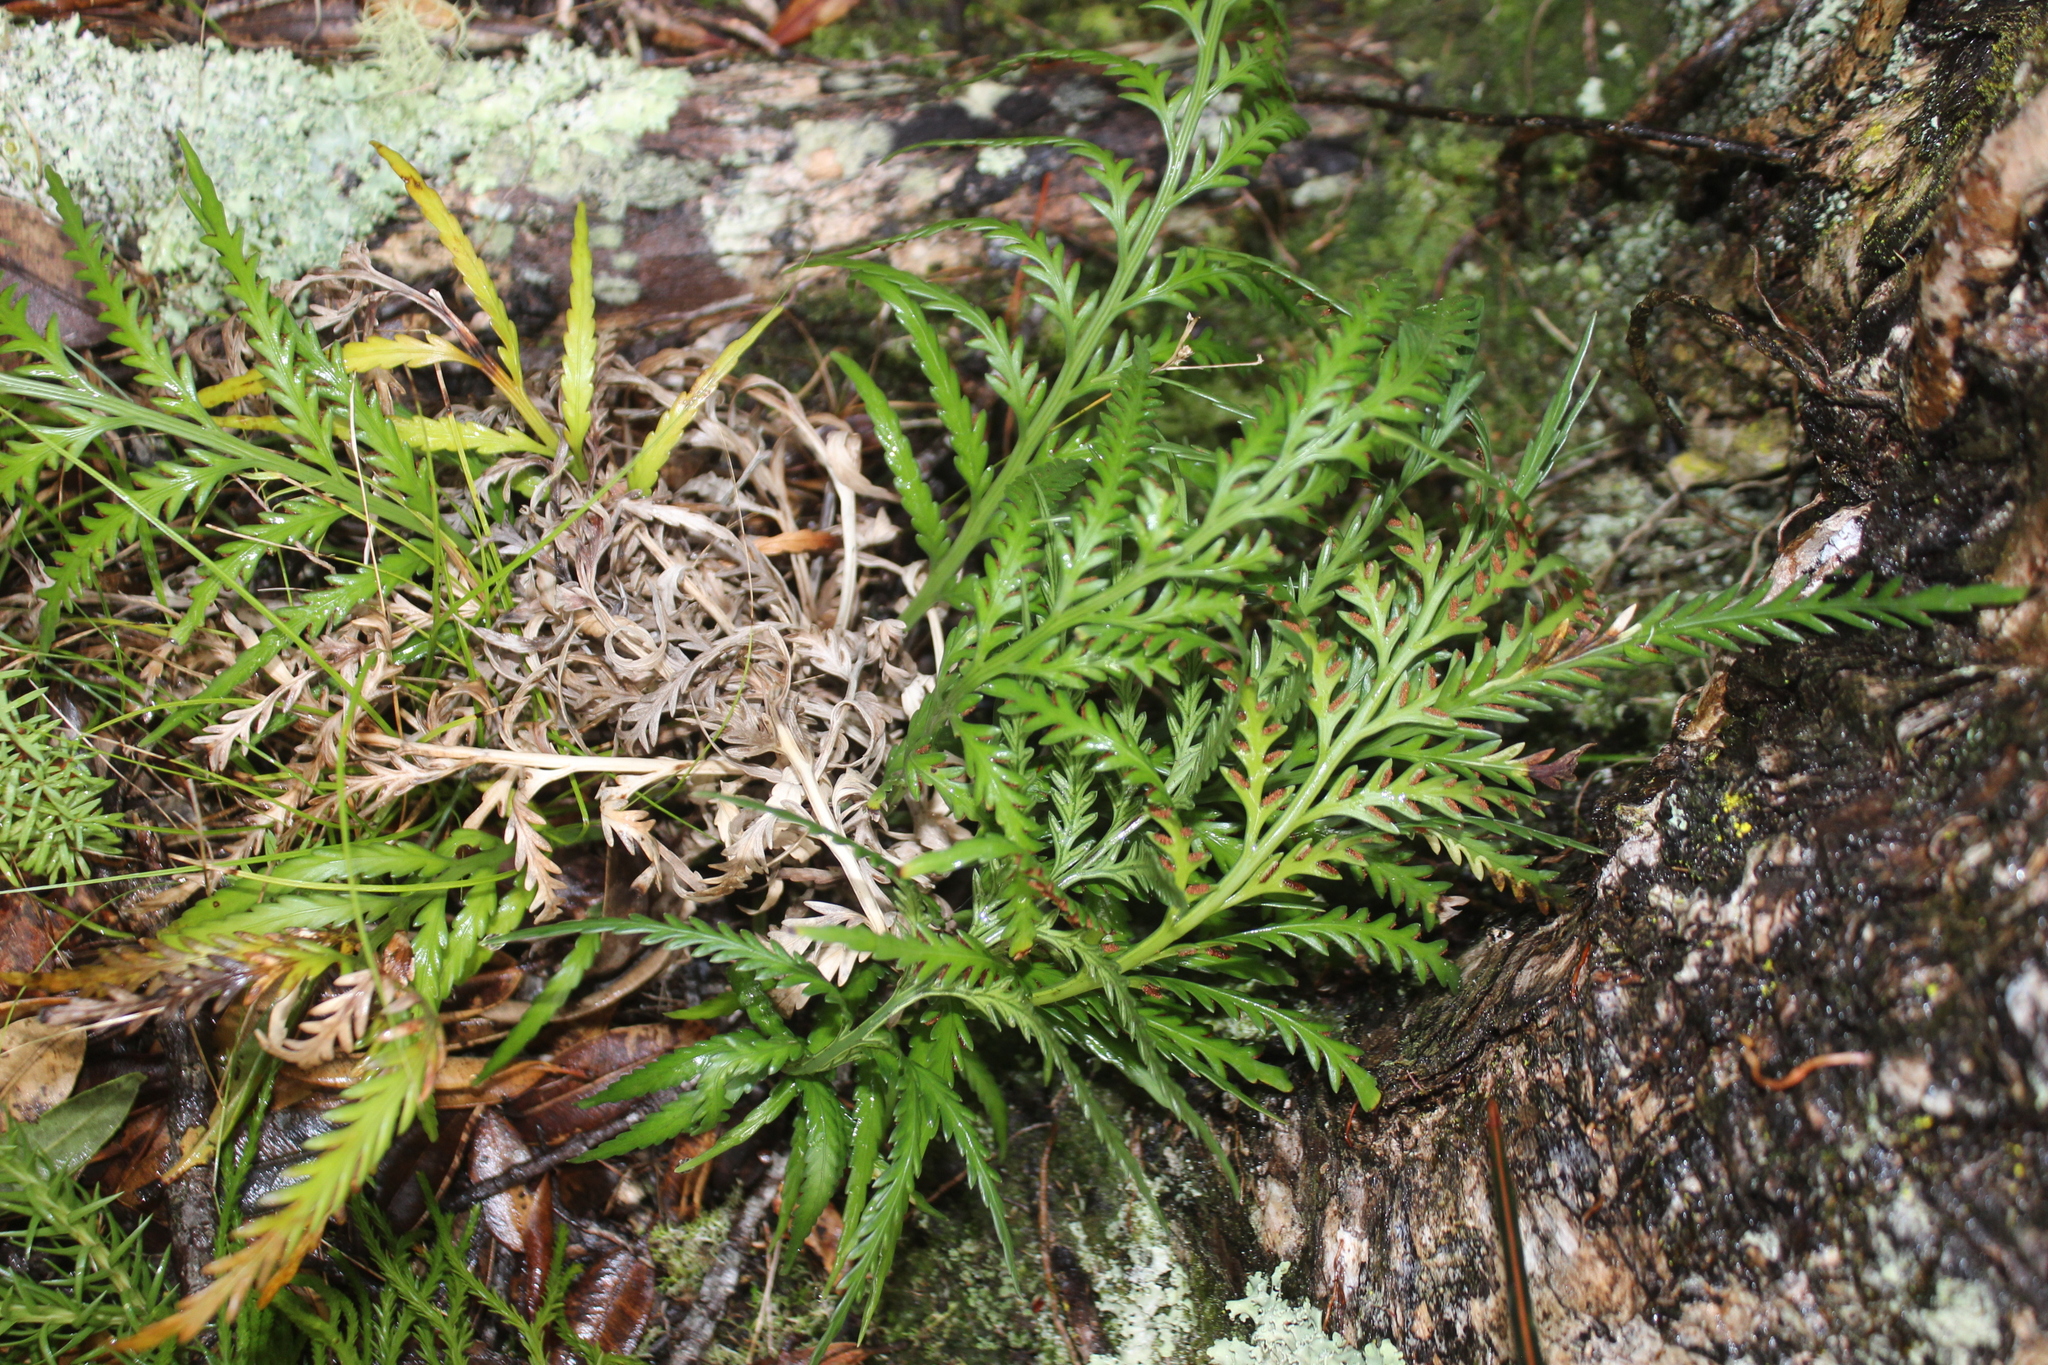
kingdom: Plantae
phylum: Tracheophyta
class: Polypodiopsida
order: Polypodiales
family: Aspleniaceae
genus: Asplenium
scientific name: Asplenium flaccidum
